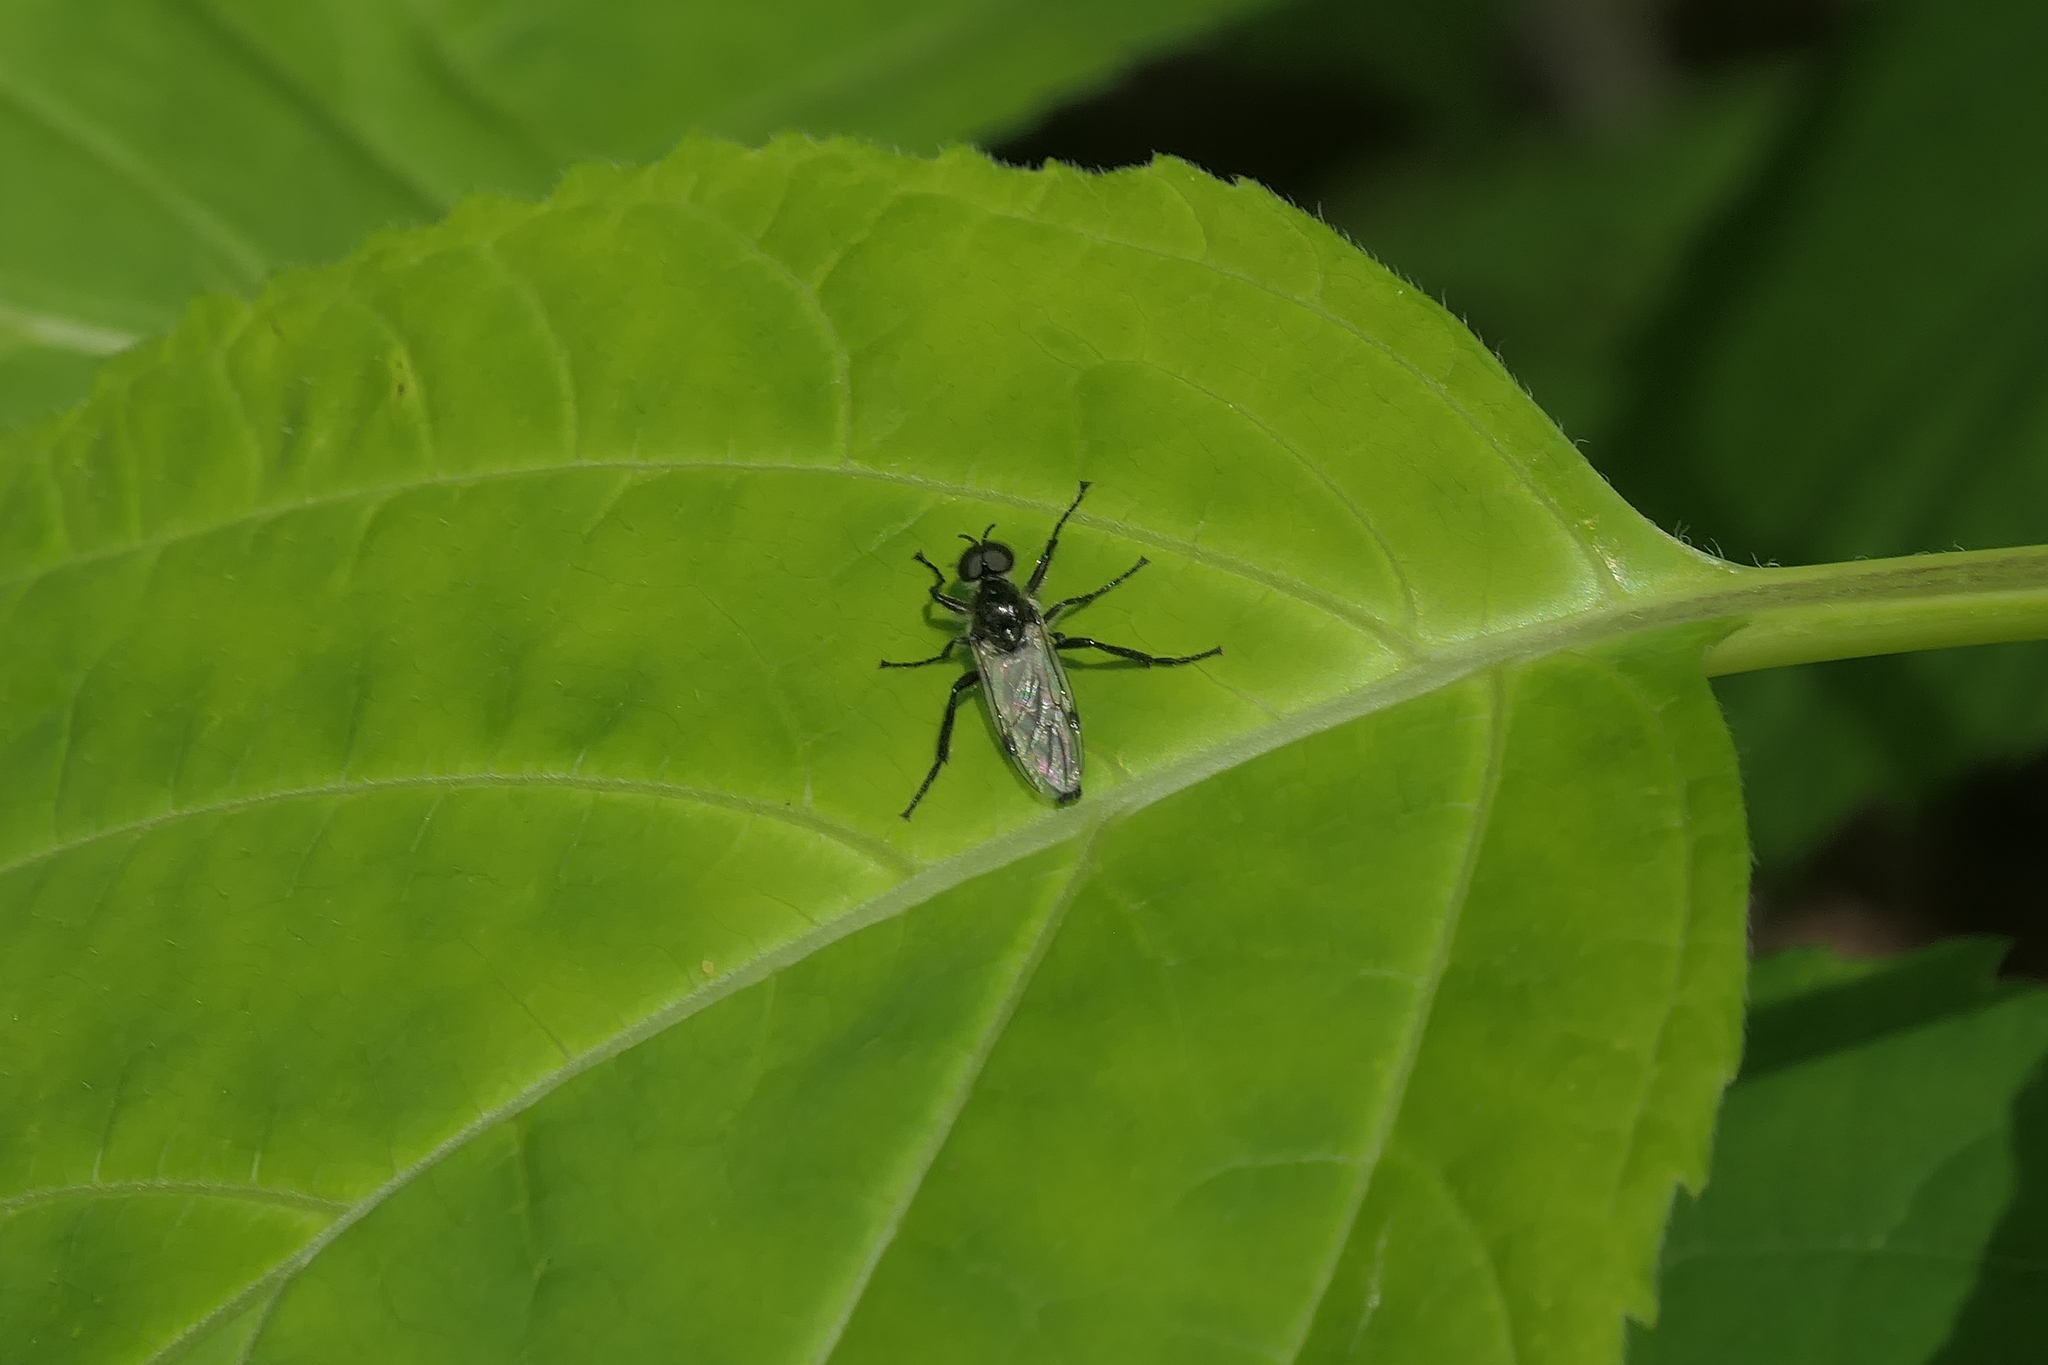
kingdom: Animalia
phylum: Arthropoda
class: Insecta
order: Diptera
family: Bibionidae
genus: Bibio
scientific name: Bibio albipennis
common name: White-winged march fly
